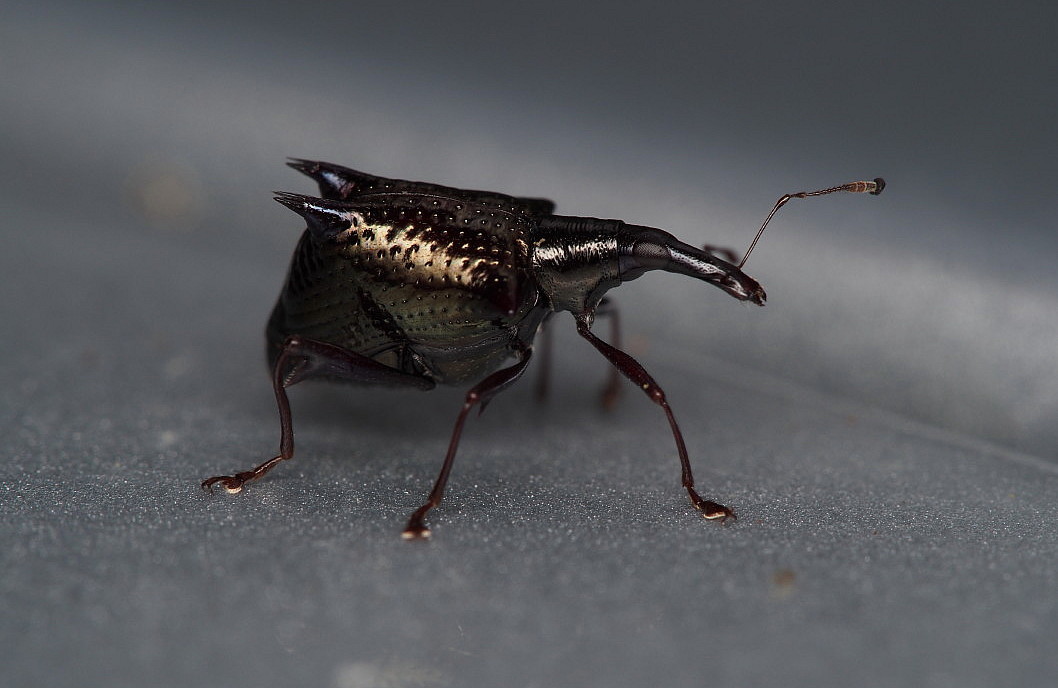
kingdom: Animalia
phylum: Arthropoda
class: Insecta
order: Coleoptera
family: Curculionidae
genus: Scolopterus
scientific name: Scolopterus aequus
